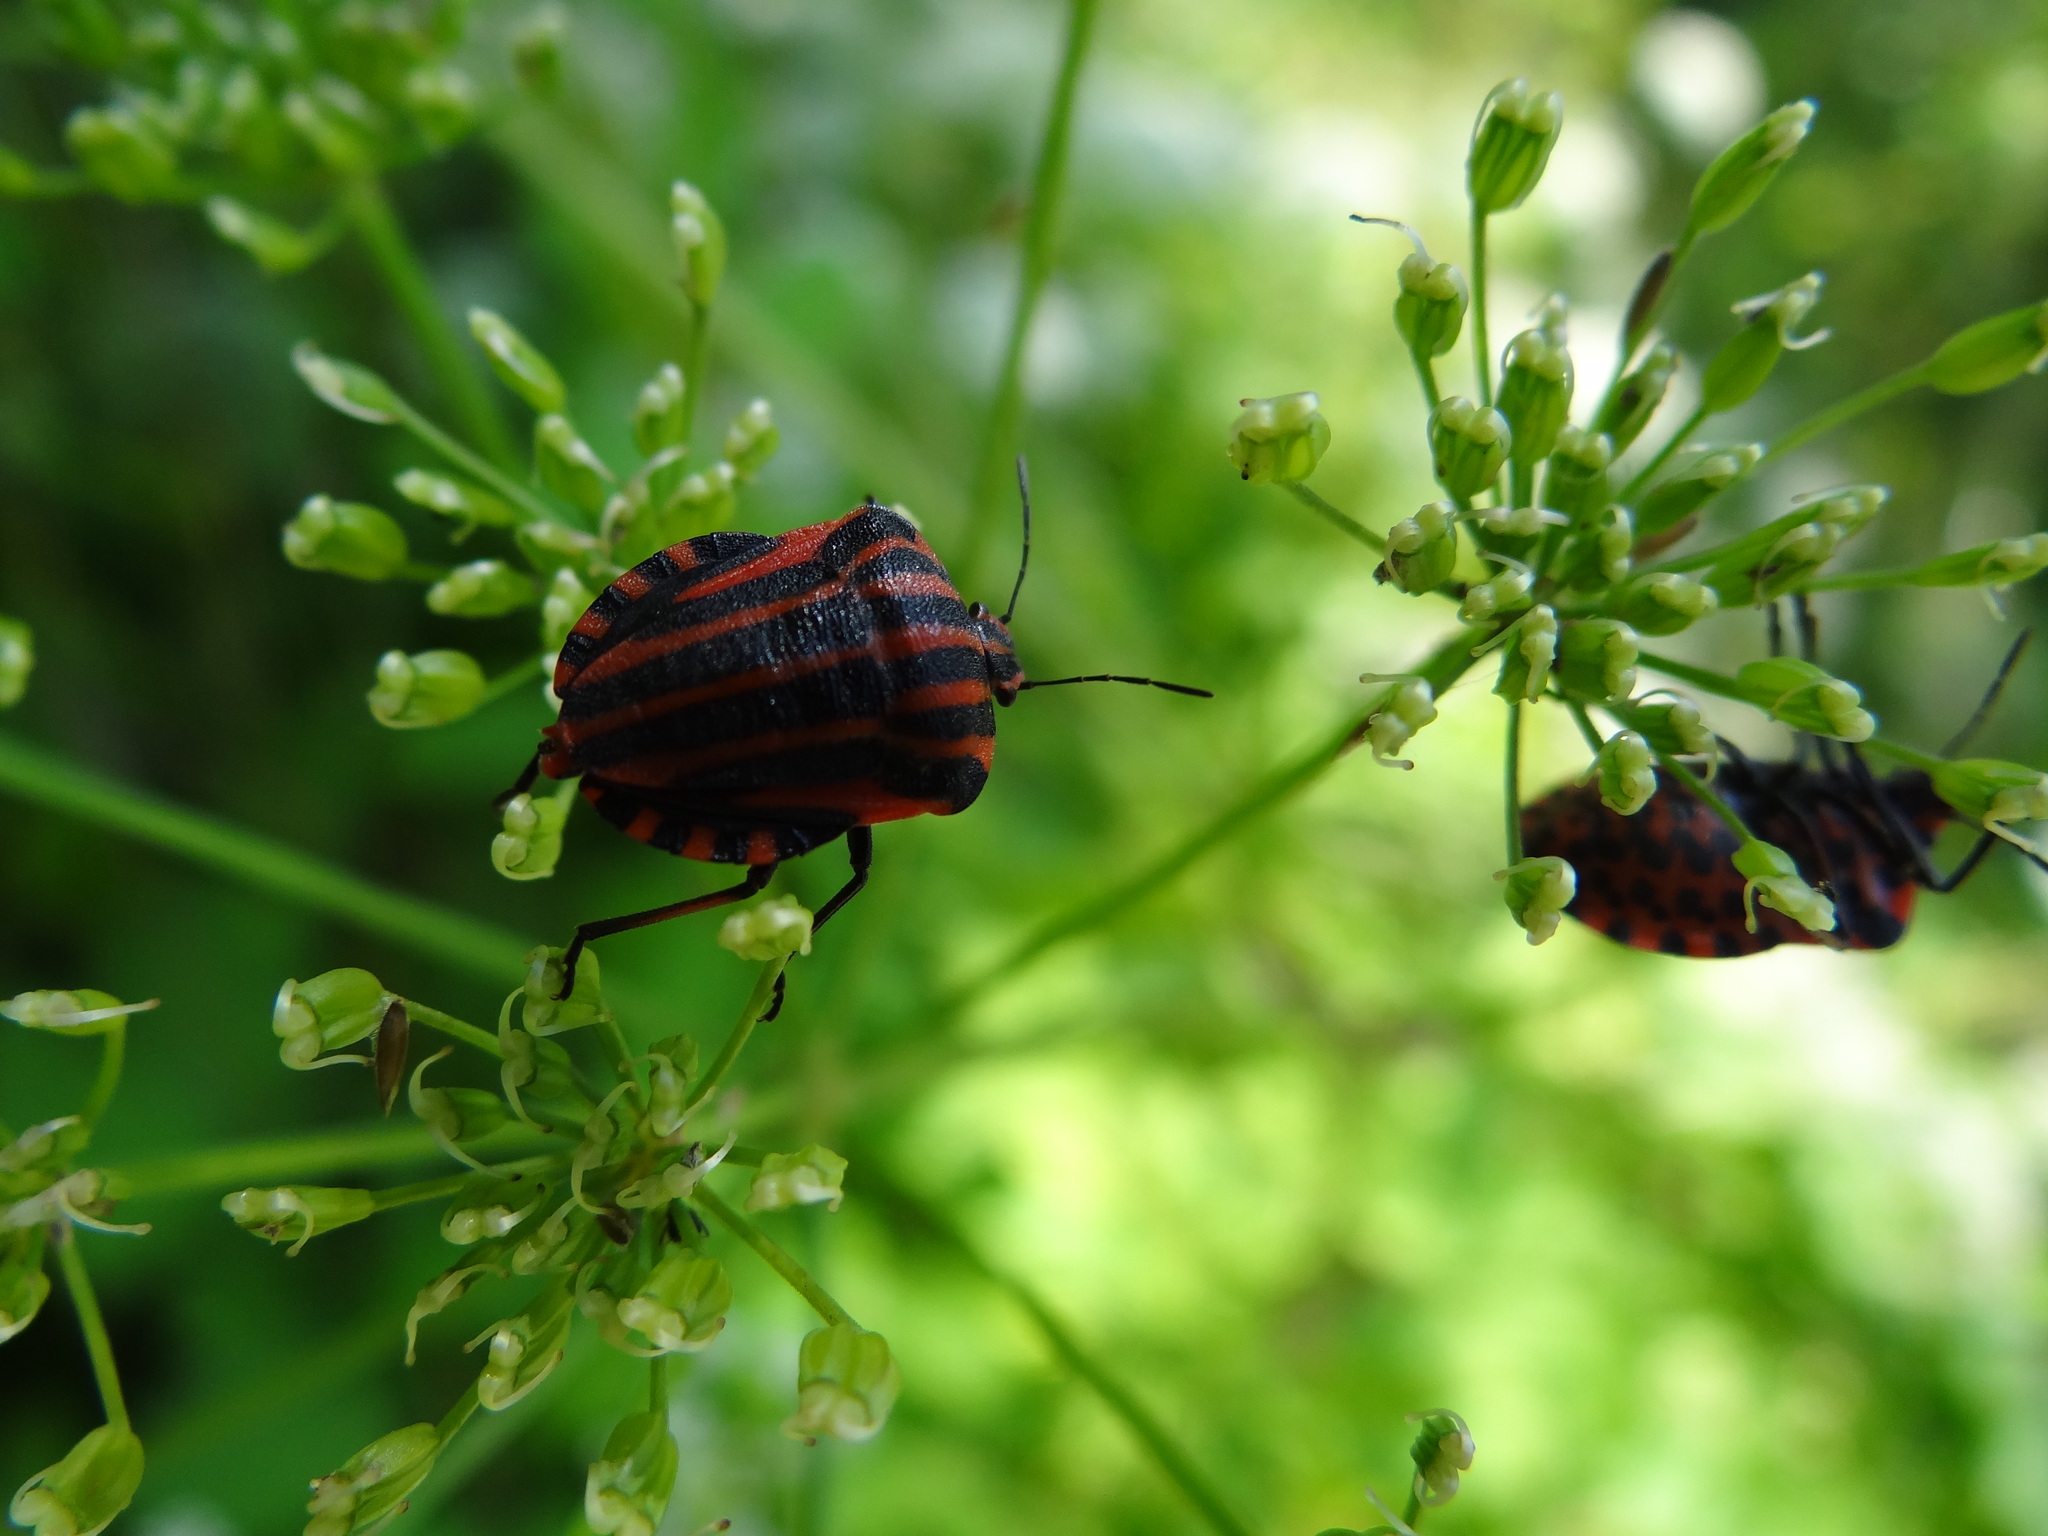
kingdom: Animalia
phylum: Arthropoda
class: Insecta
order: Hemiptera
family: Pentatomidae
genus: Graphosoma
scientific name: Graphosoma italicum
